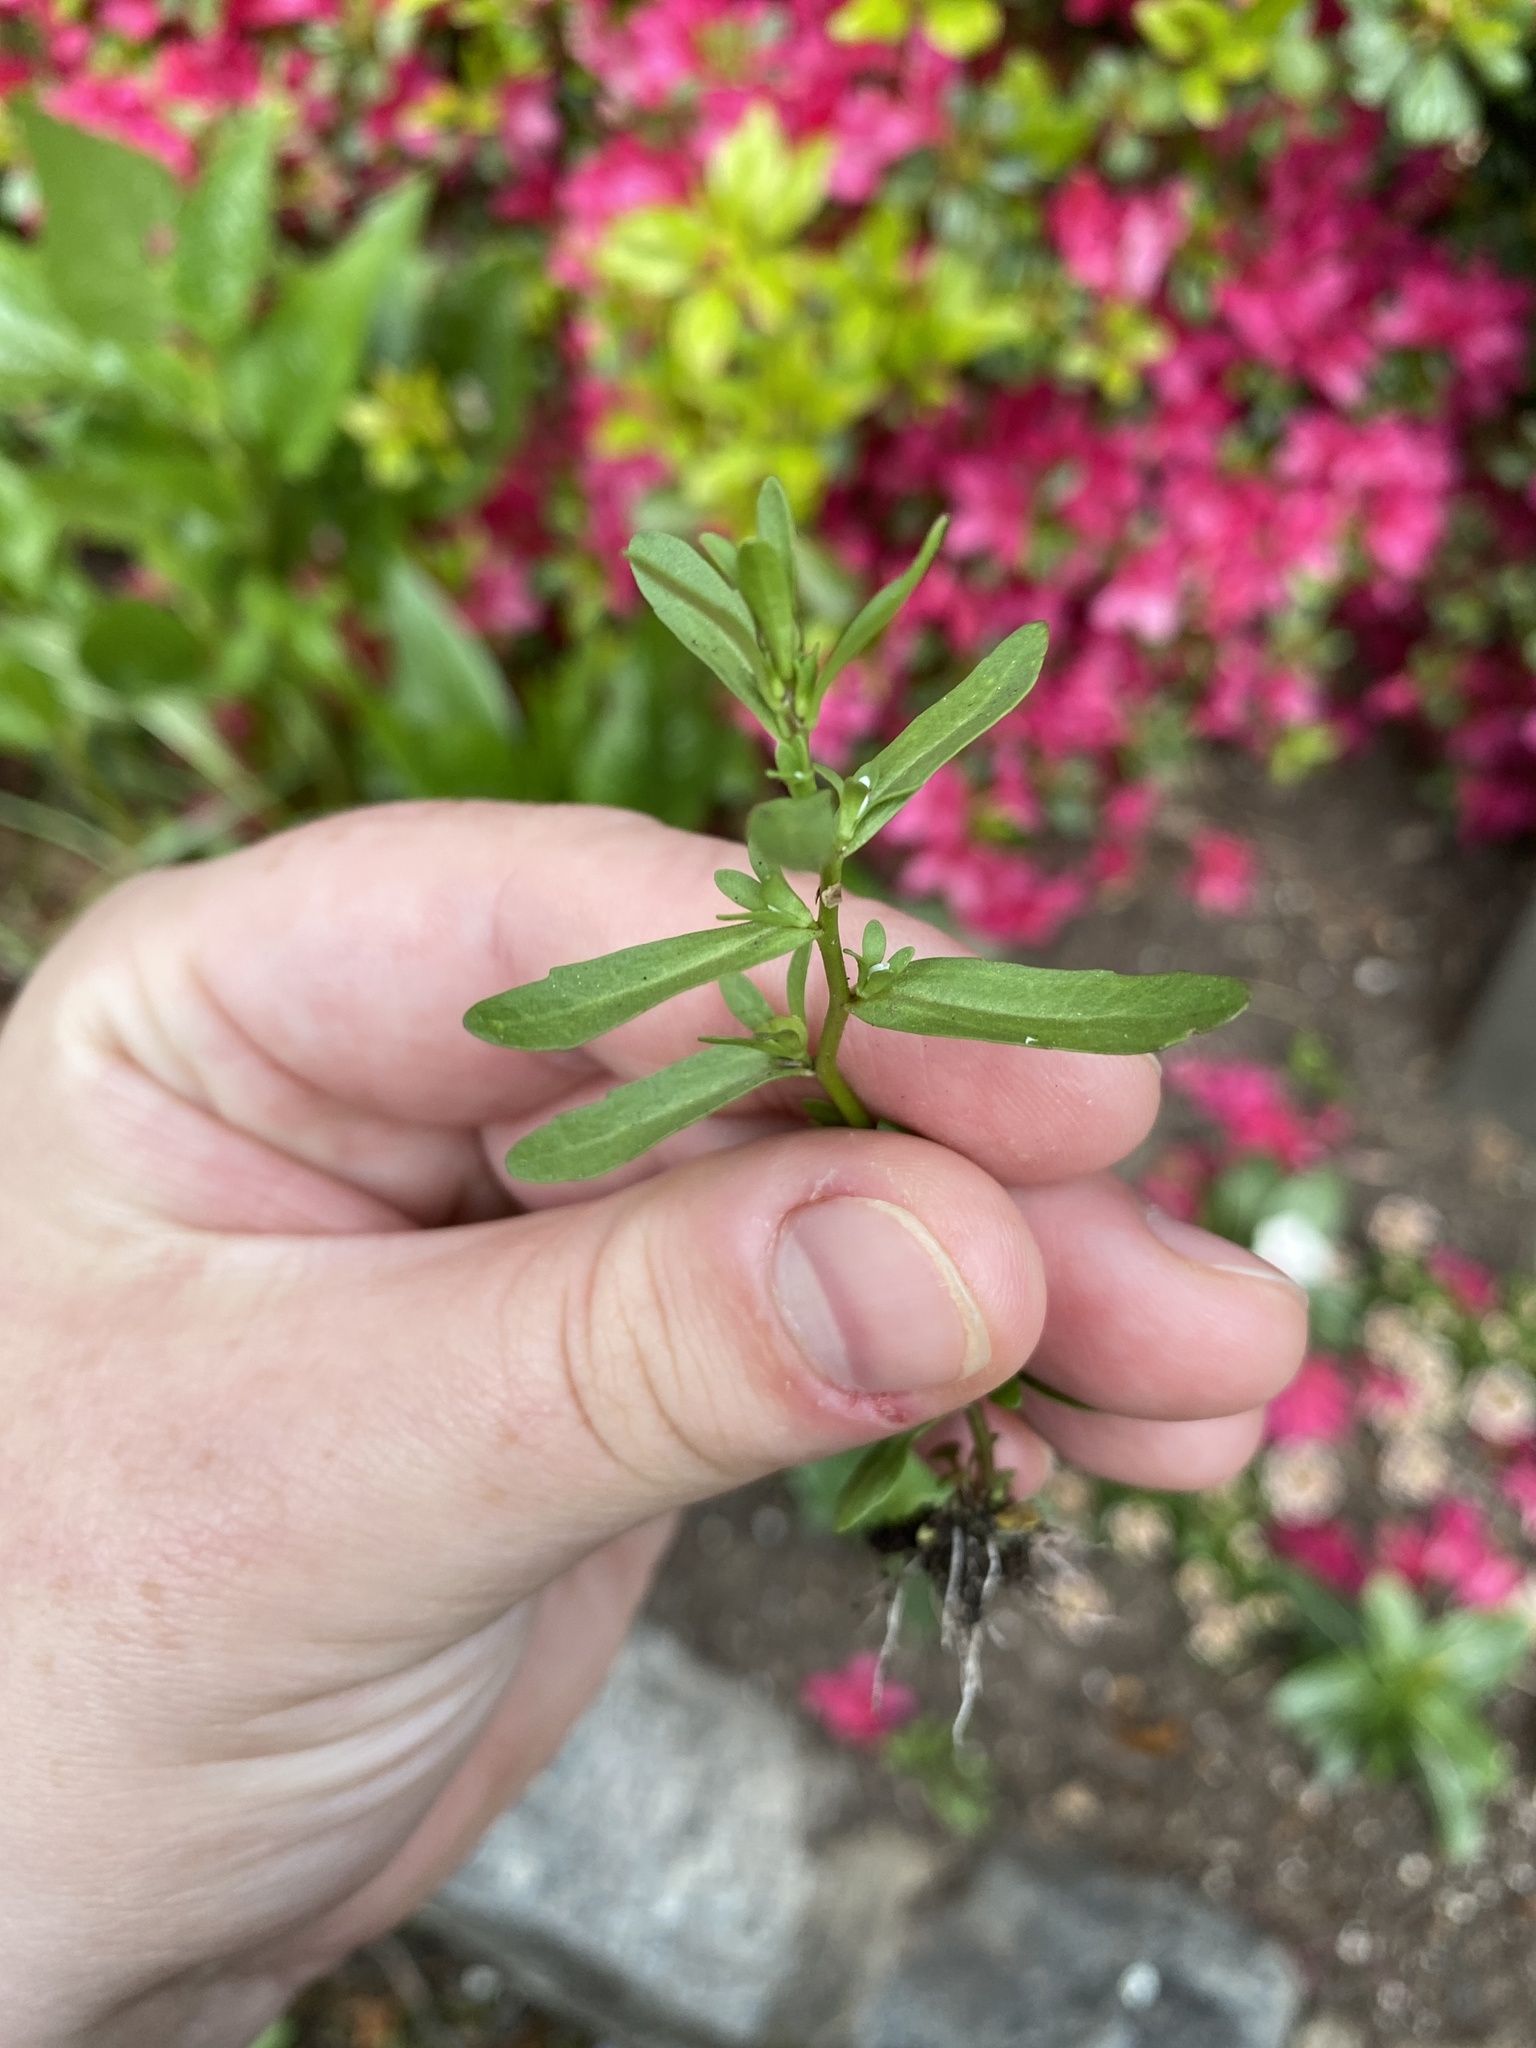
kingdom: Plantae
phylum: Tracheophyta
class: Magnoliopsida
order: Lamiales
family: Plantaginaceae
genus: Veronica
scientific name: Veronica peregrina
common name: Neckweed
